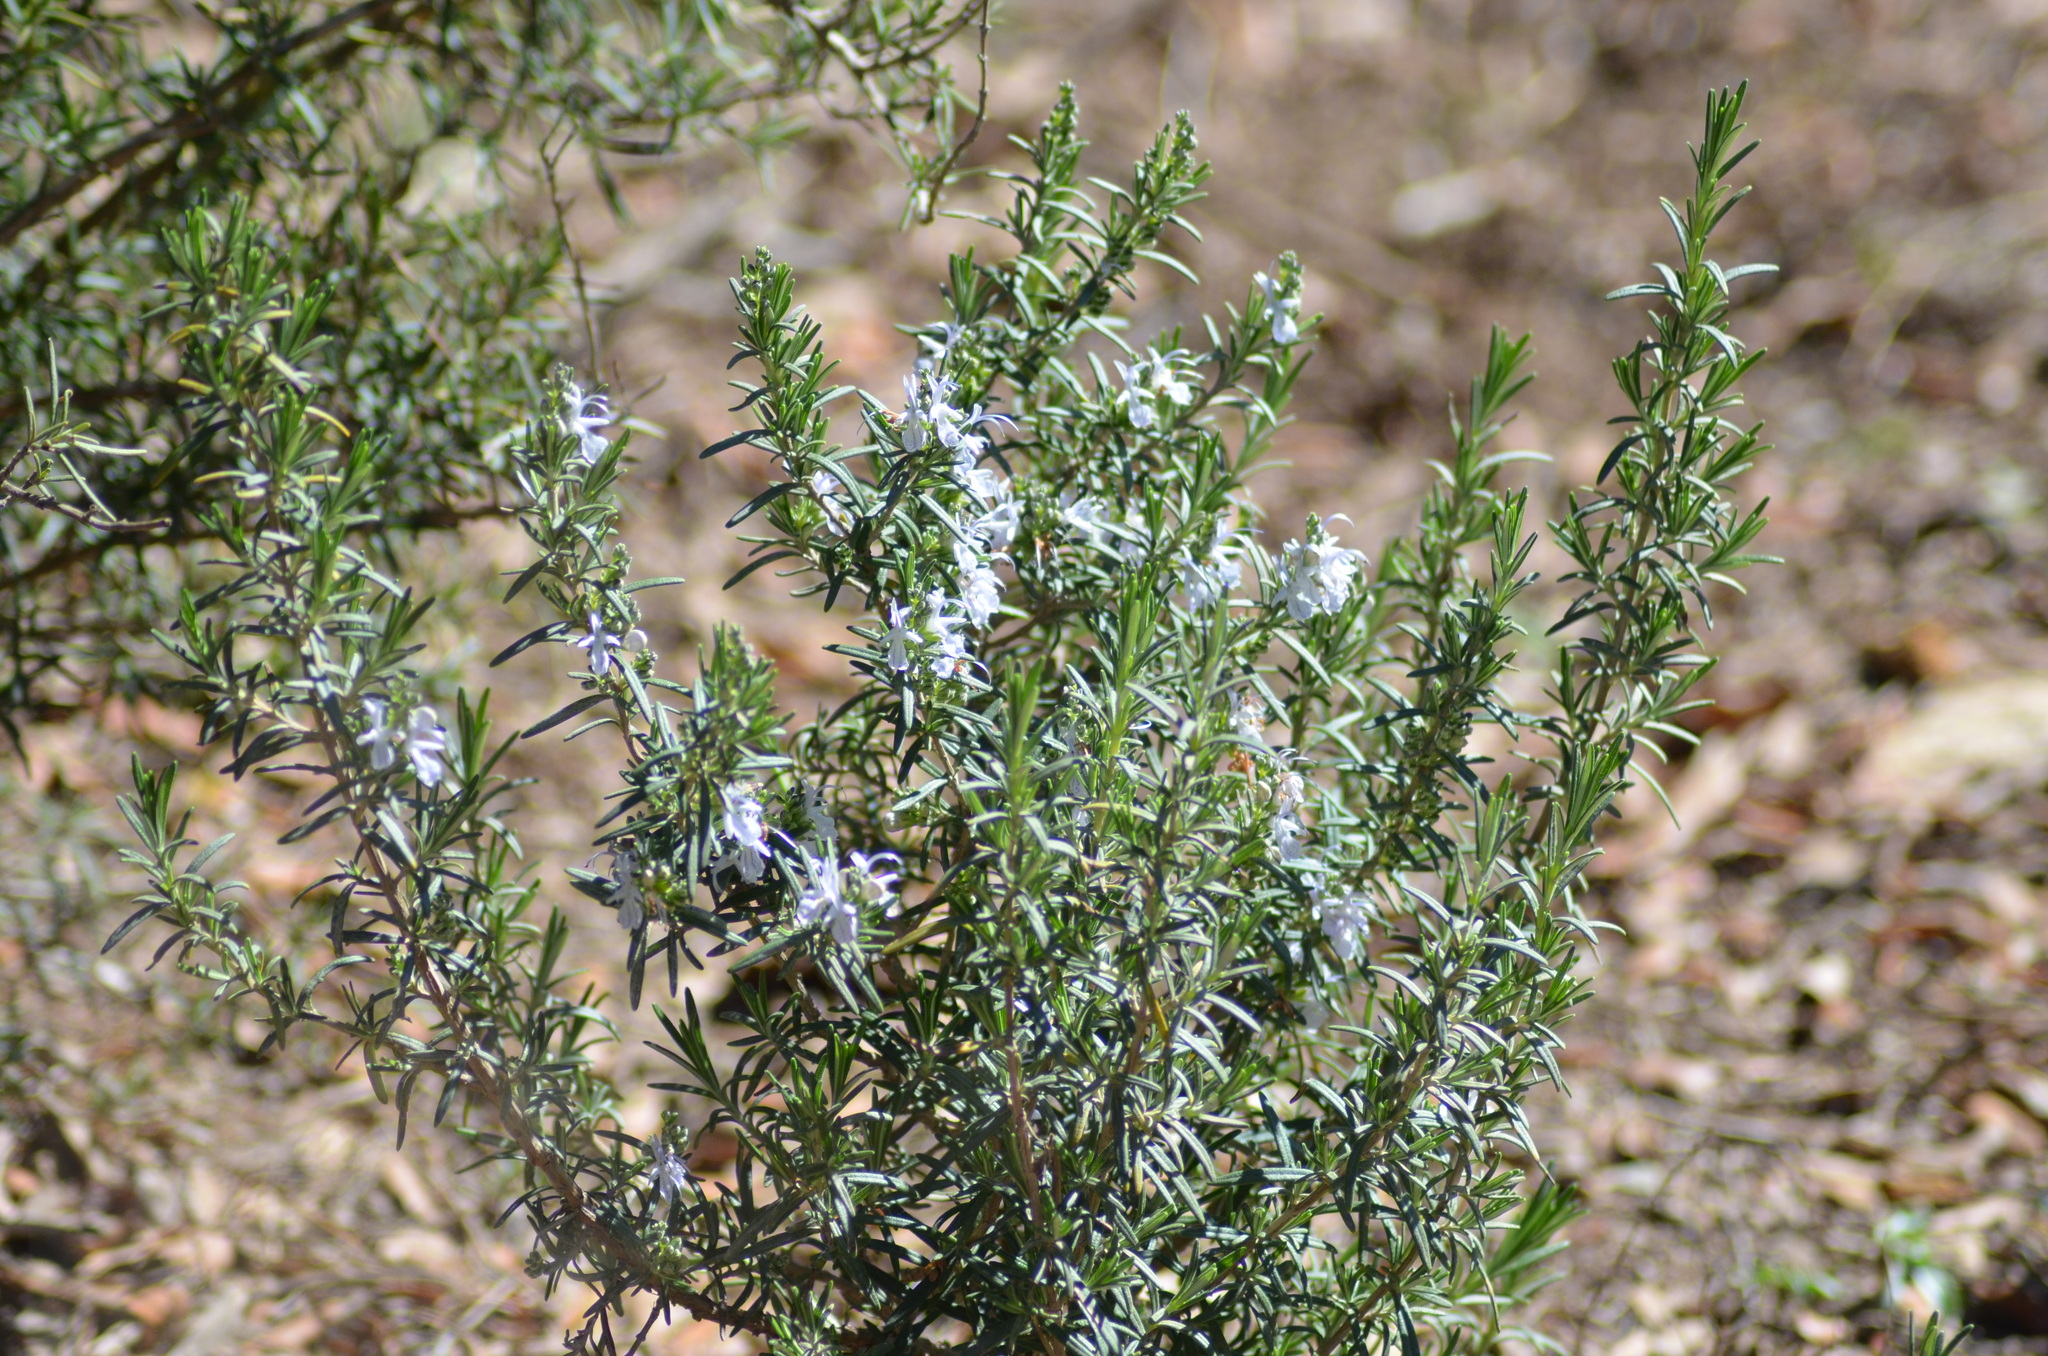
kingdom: Plantae
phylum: Tracheophyta
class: Magnoliopsida
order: Lamiales
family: Lamiaceae
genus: Salvia
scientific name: Salvia rosmarinus
